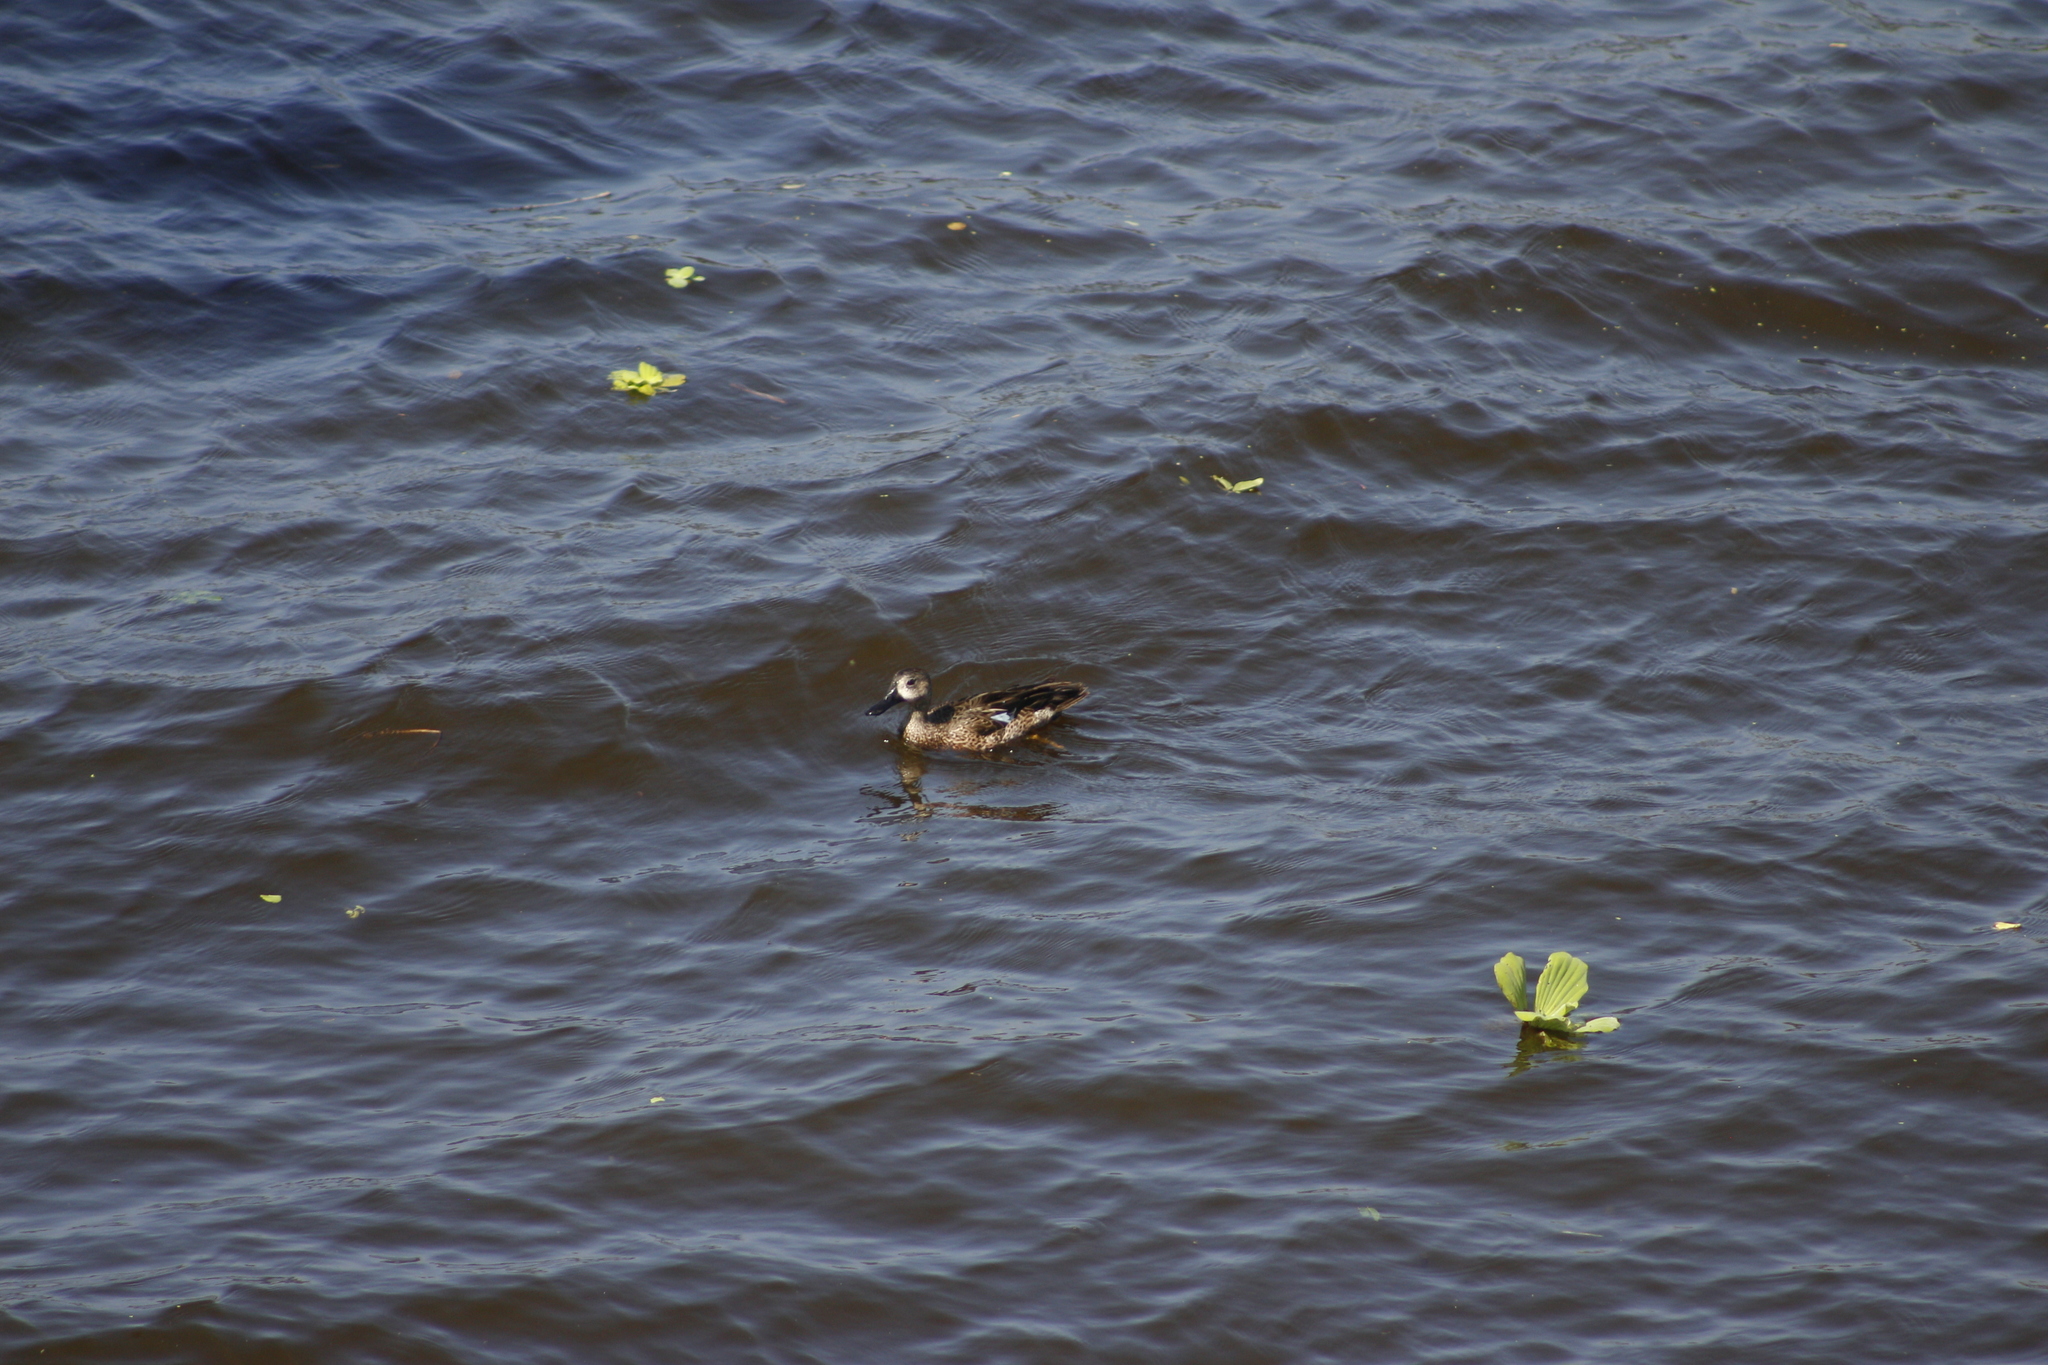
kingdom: Animalia
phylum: Chordata
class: Aves
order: Anseriformes
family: Anatidae
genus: Spatula
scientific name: Spatula discors
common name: Blue-winged teal
